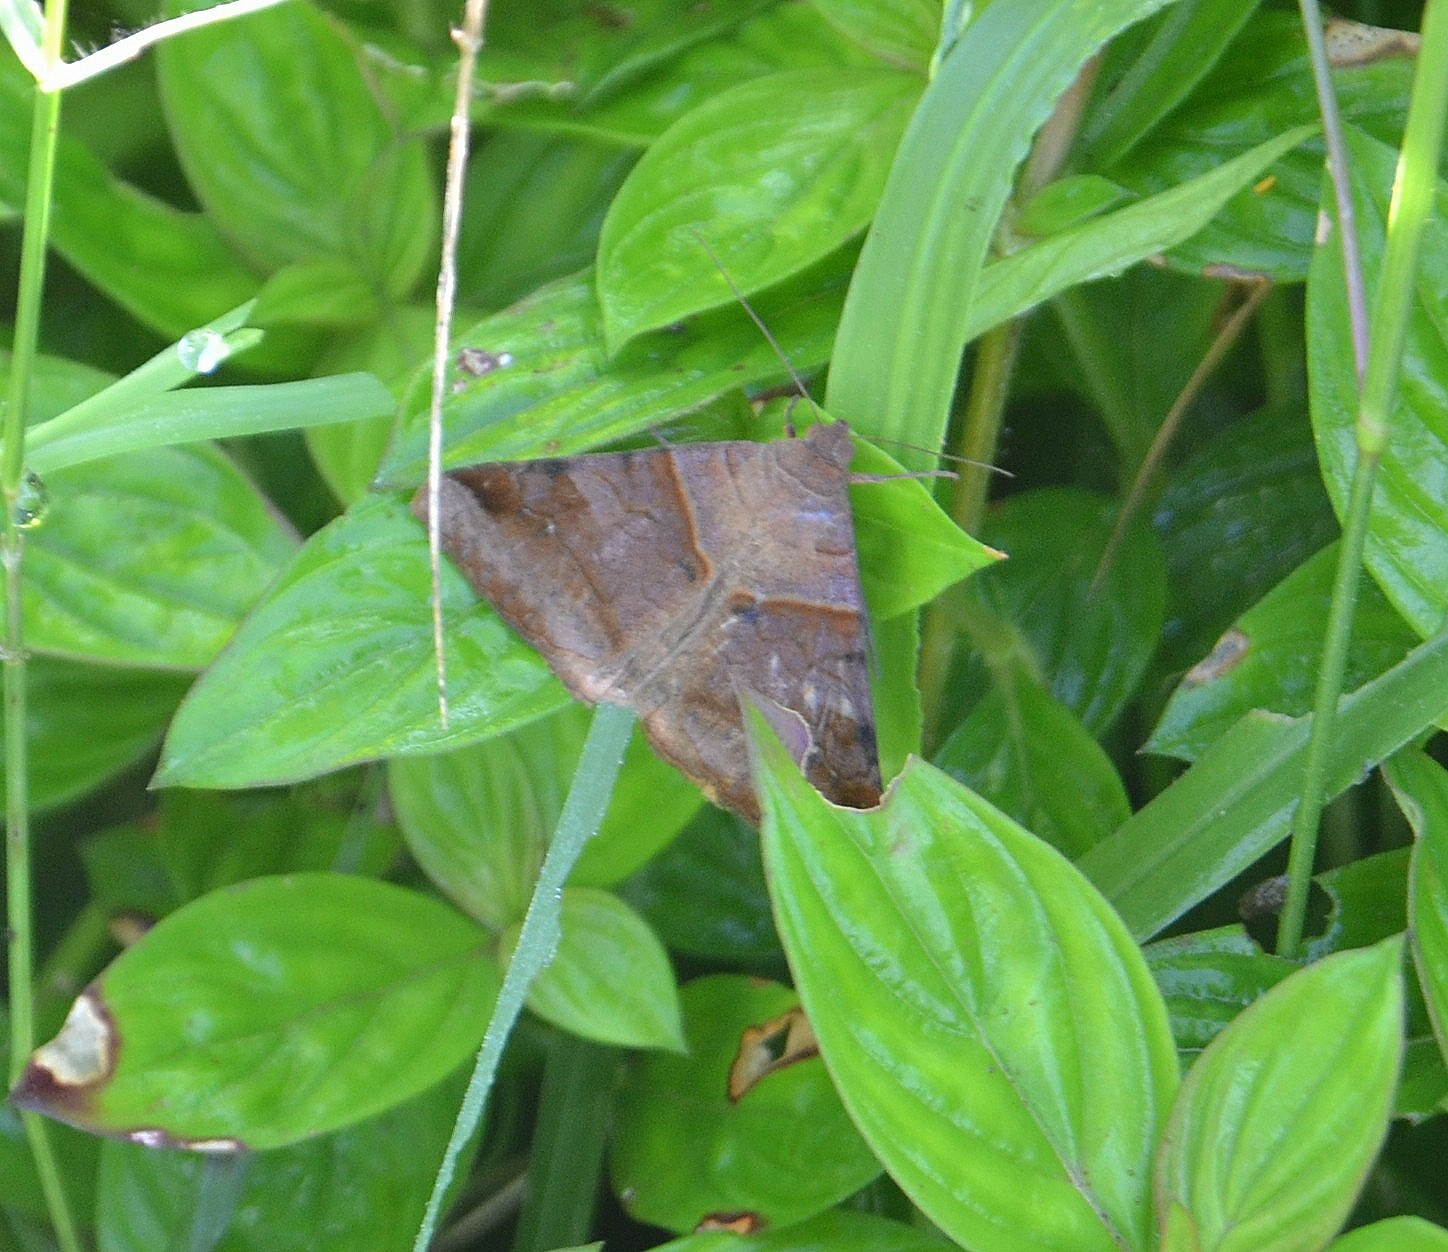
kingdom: Animalia
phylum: Arthropoda
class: Insecta
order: Lepidoptera
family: Erebidae
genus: Mocis
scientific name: Mocis undata
